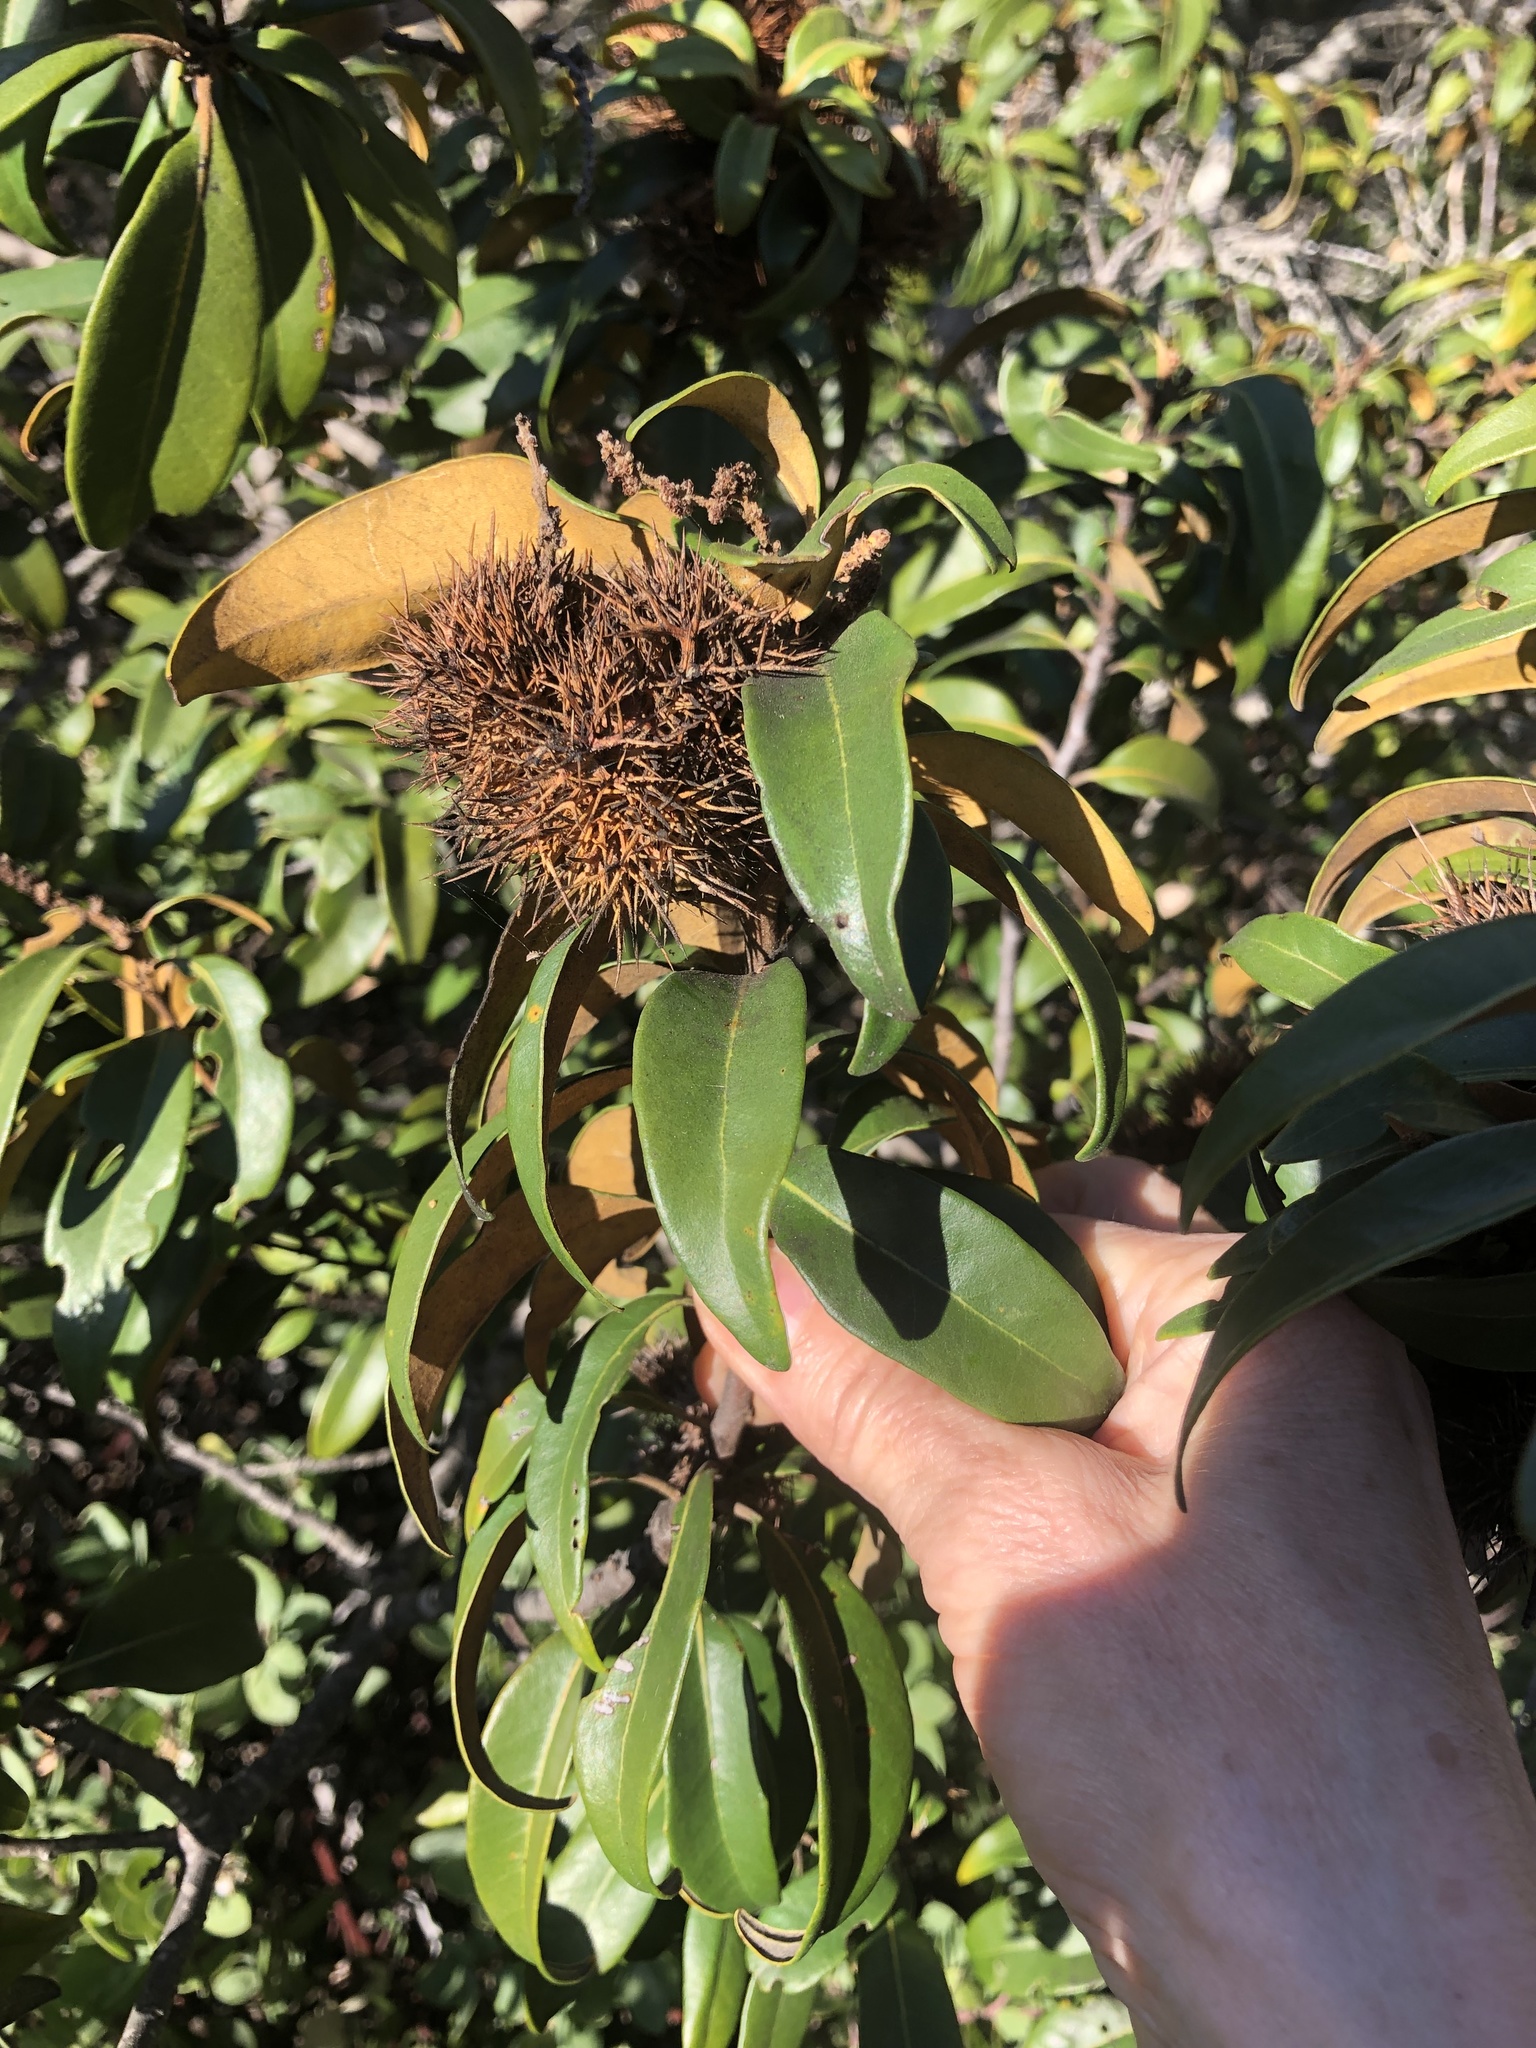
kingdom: Plantae
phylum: Tracheophyta
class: Magnoliopsida
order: Fagales
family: Fagaceae
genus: Chrysolepis
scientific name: Chrysolepis chrysophylla
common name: Giant chinquapin
